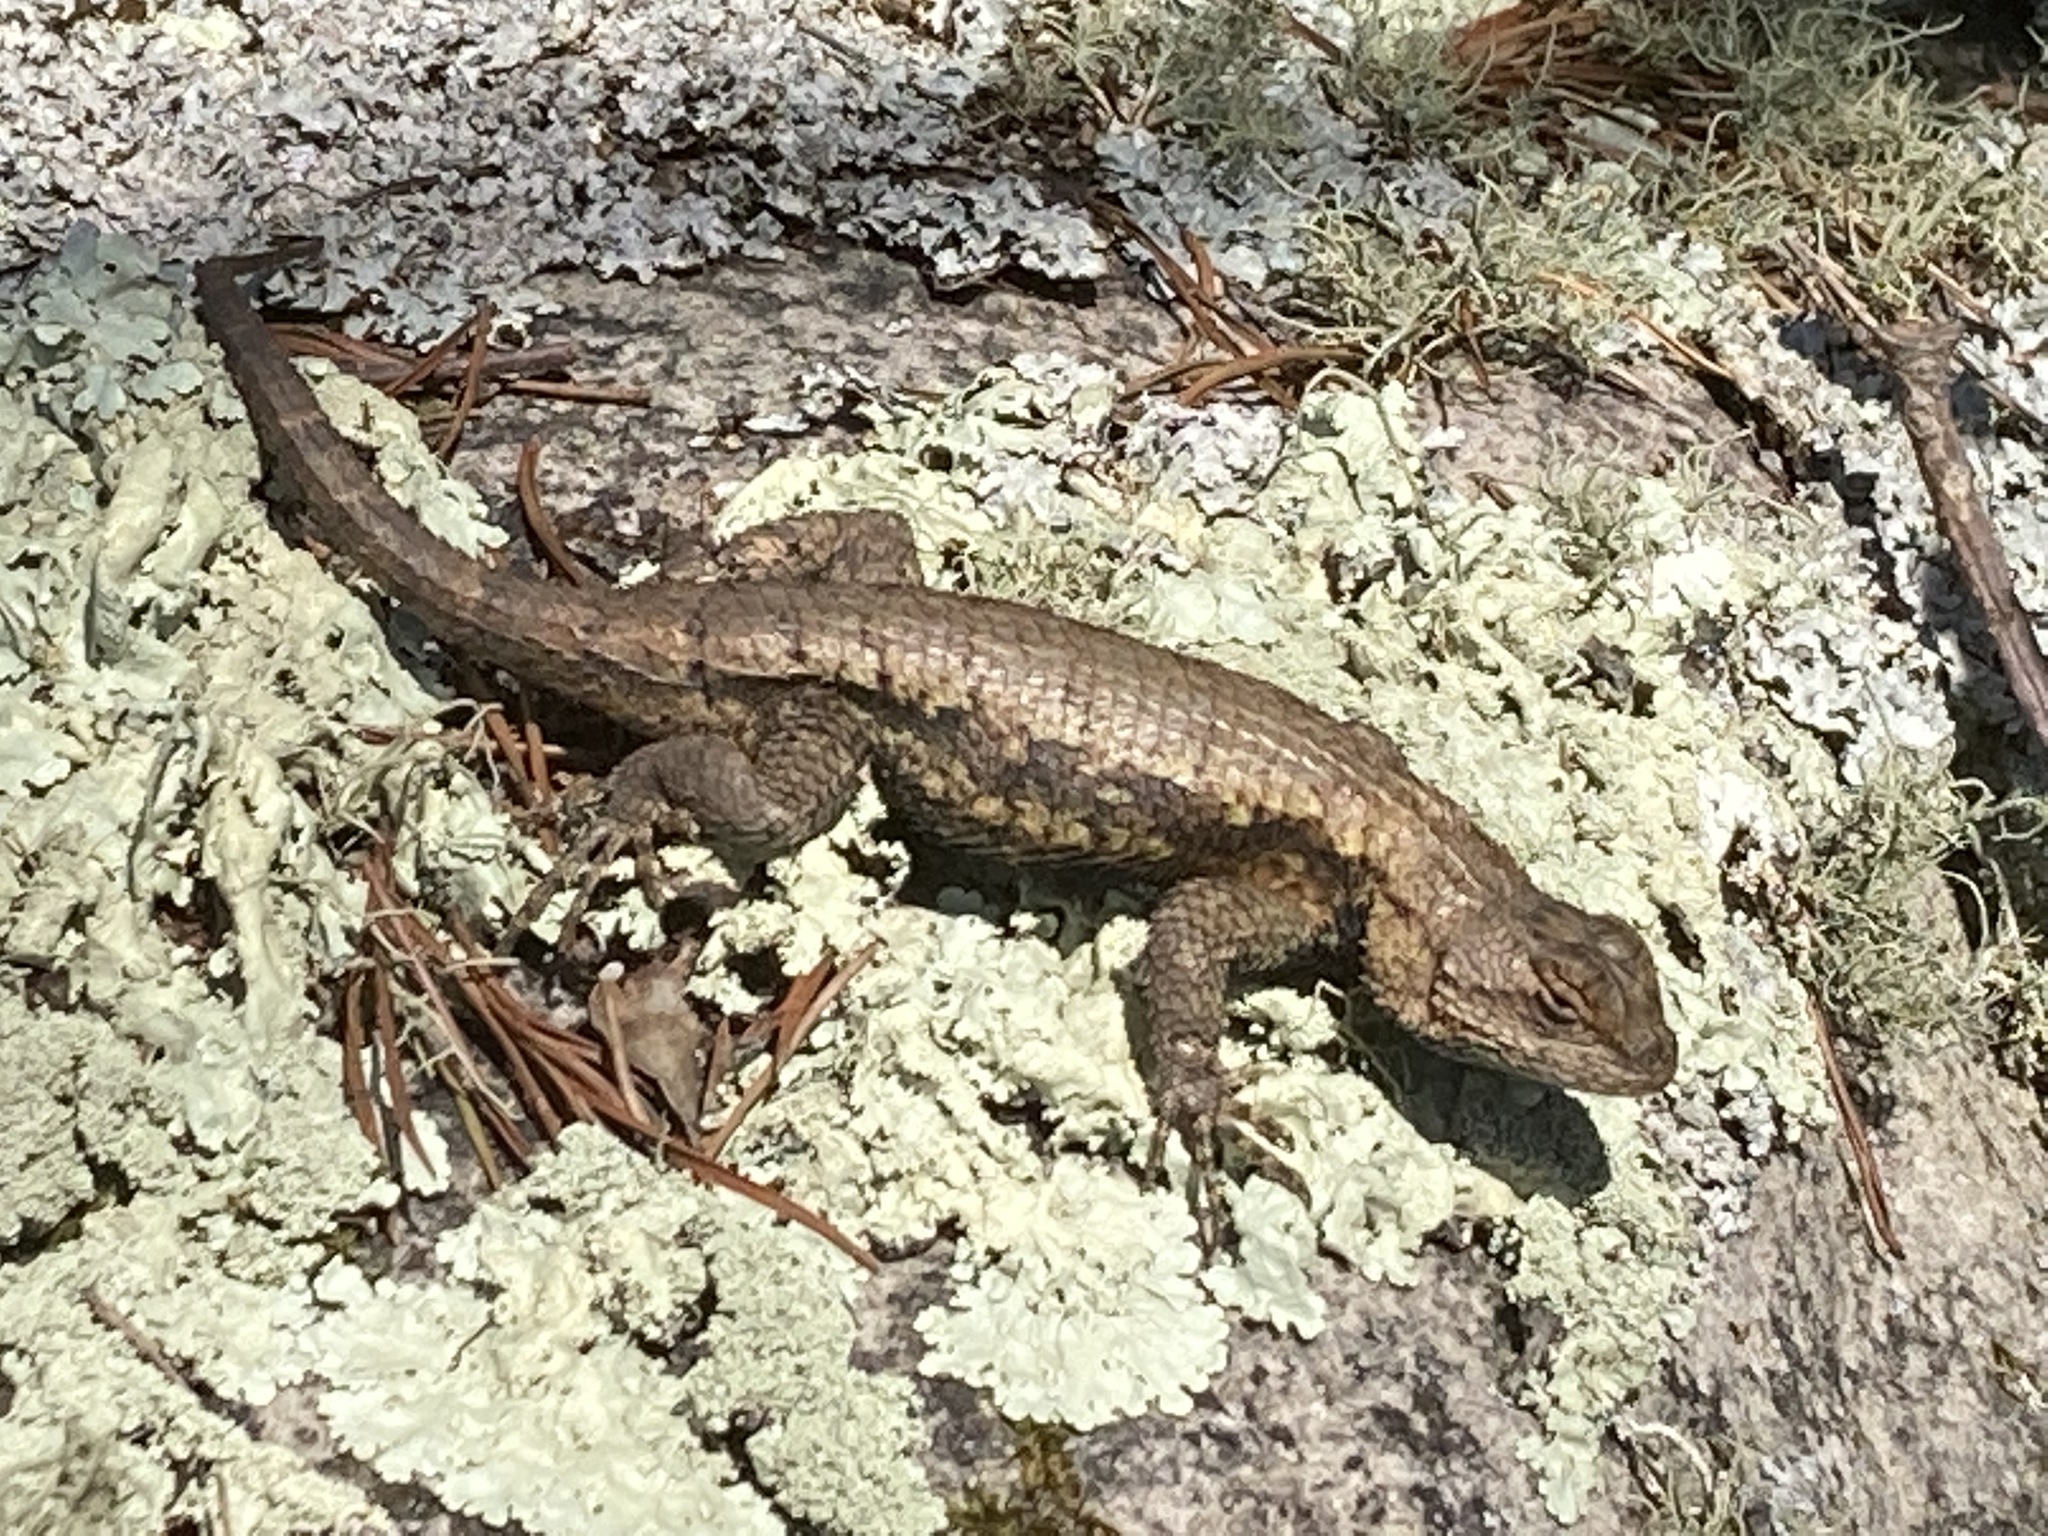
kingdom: Animalia
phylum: Chordata
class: Squamata
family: Phrynosomatidae
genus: Sceloporus
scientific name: Sceloporus undulatus
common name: Eastern fence lizard
